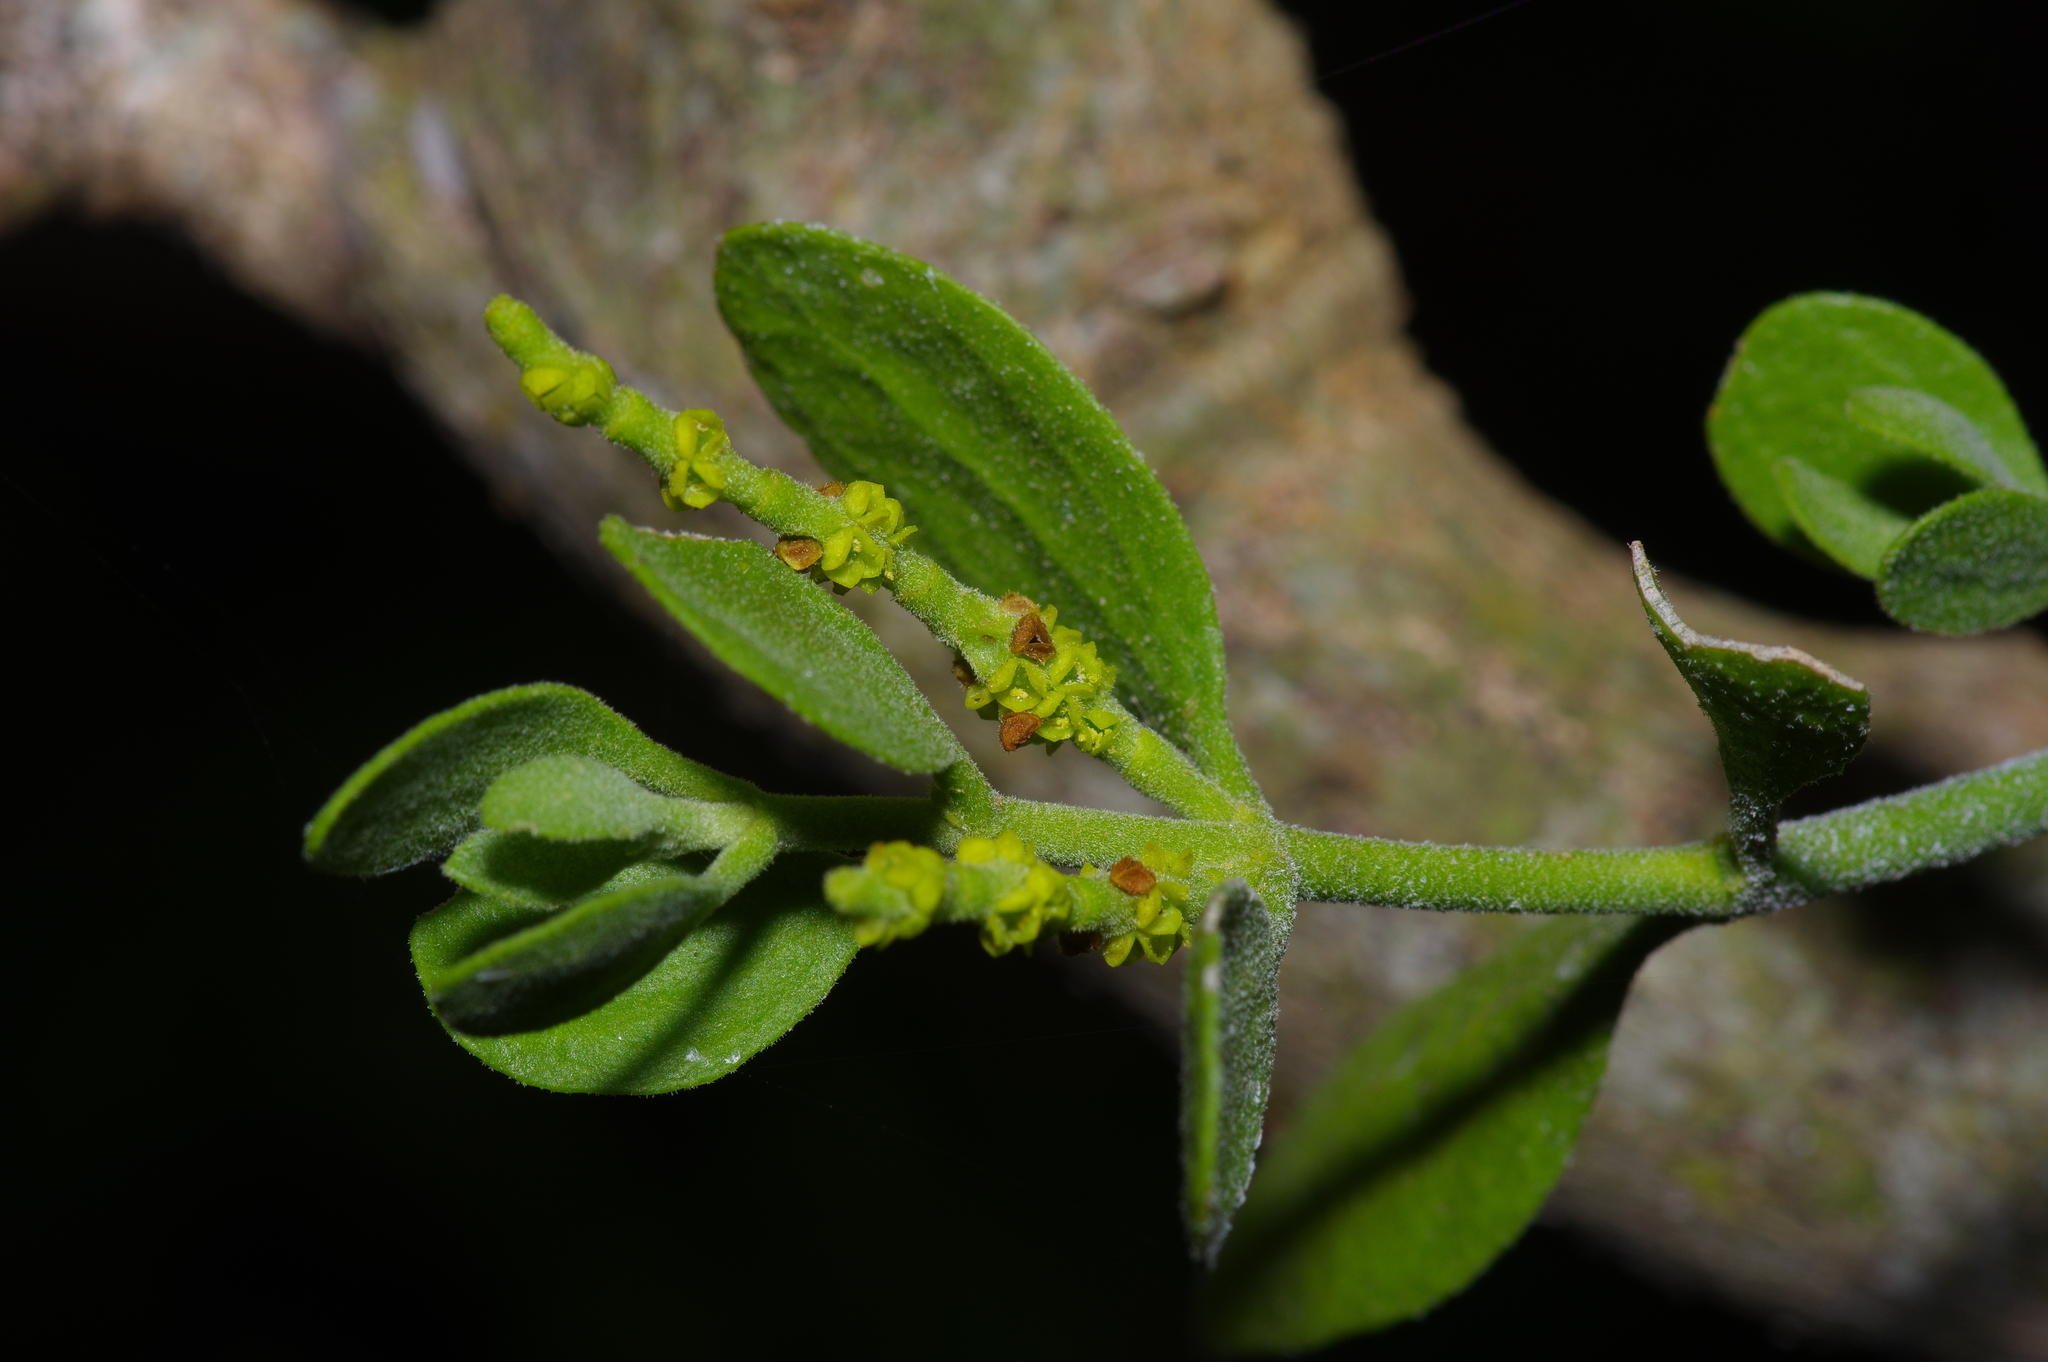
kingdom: Plantae
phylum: Tracheophyta
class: Magnoliopsida
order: Santalales
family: Viscaceae
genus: Phoradendron
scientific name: Phoradendron leucarpum
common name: Pacific mistletoe
